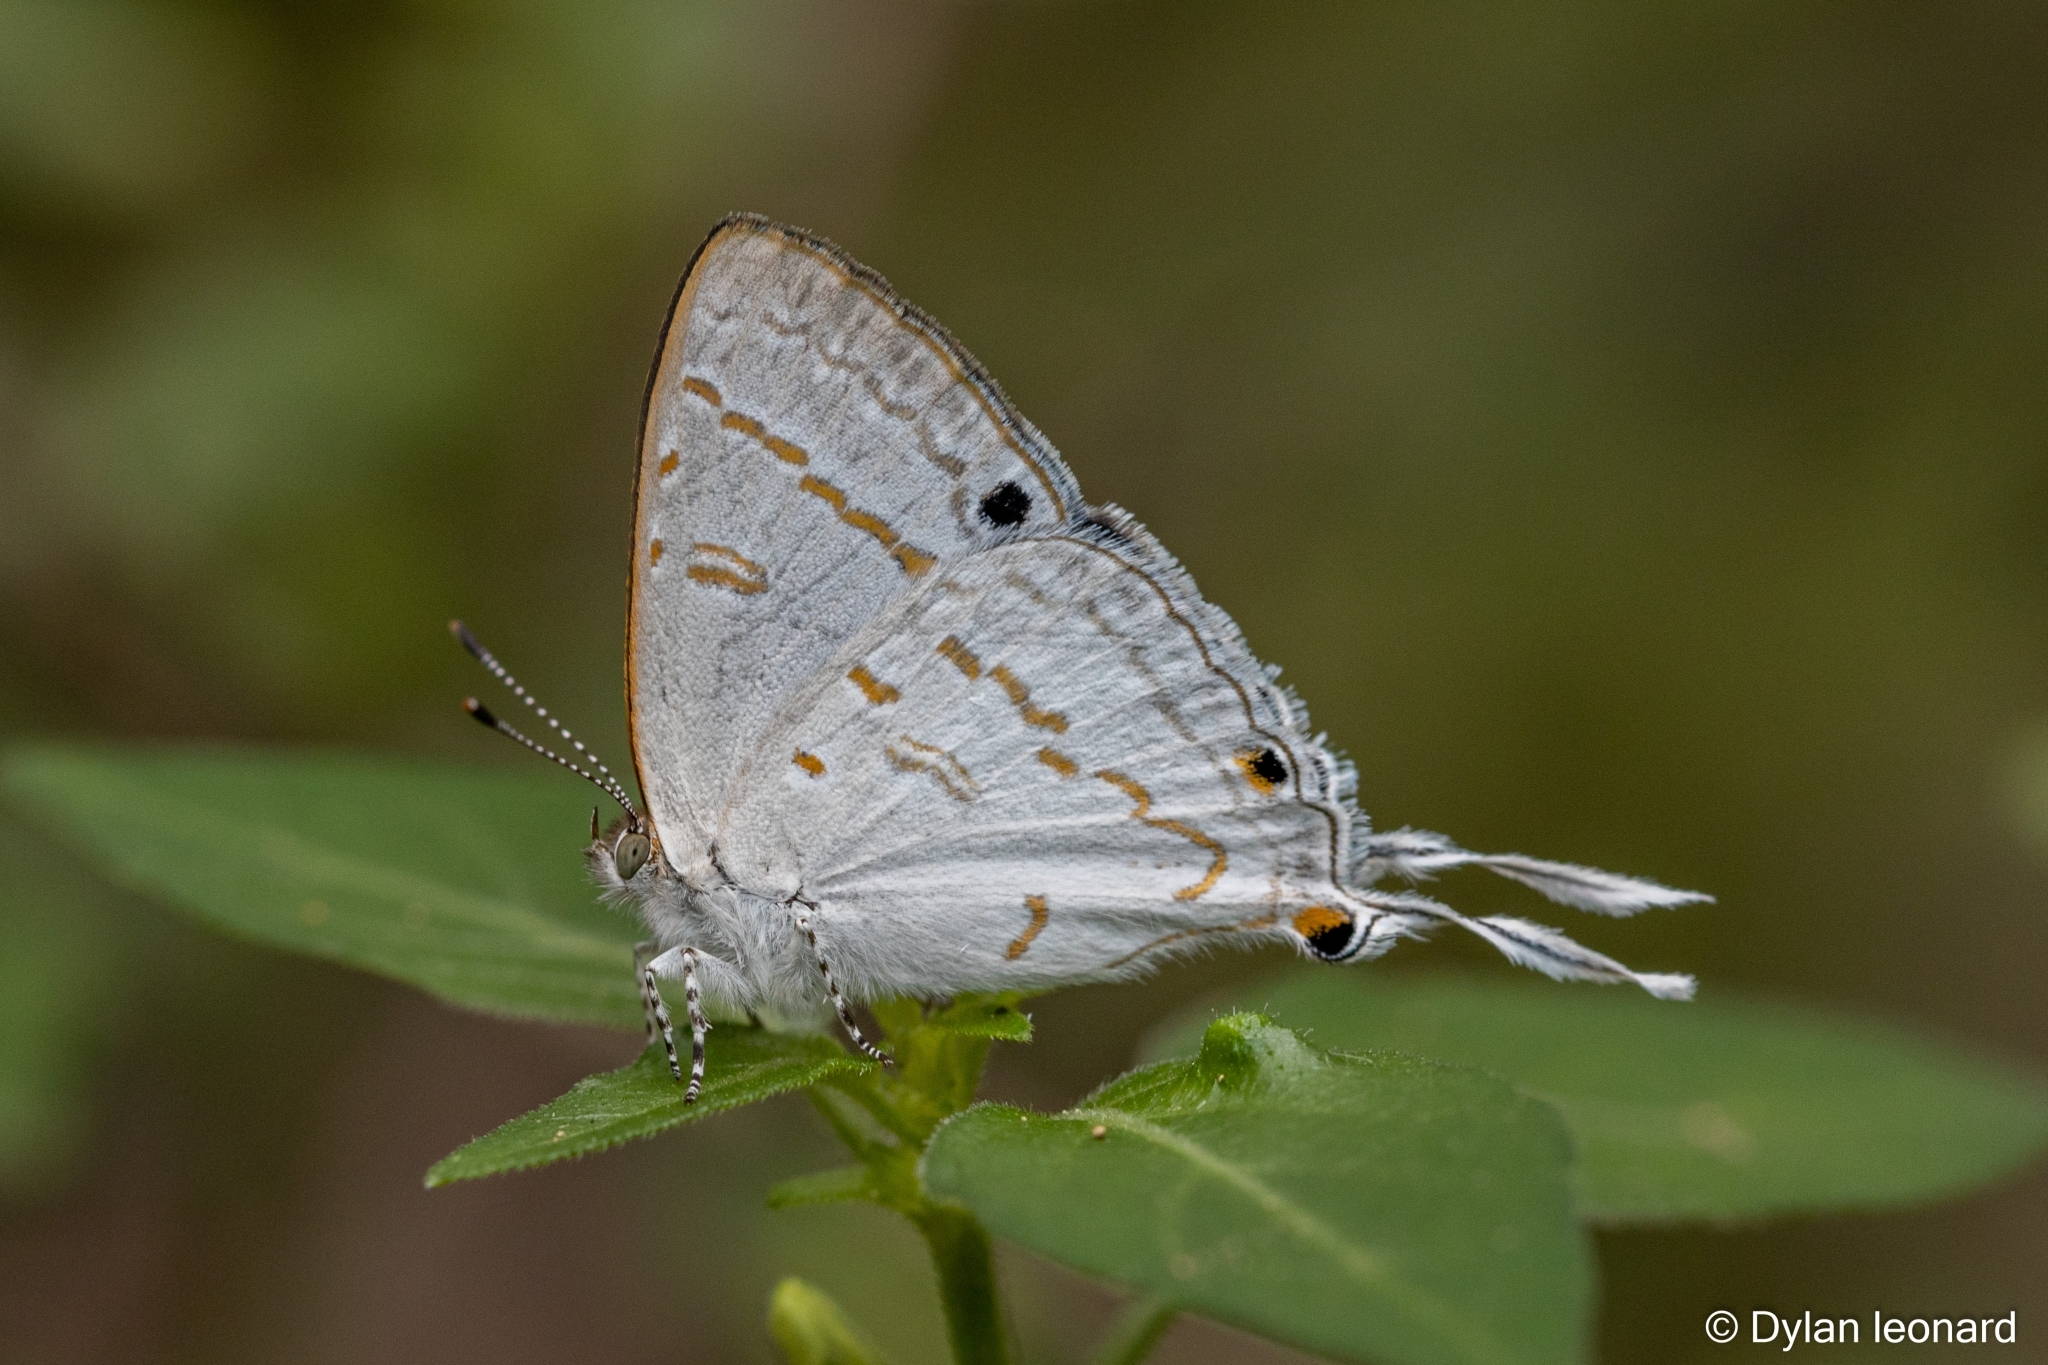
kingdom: Animalia
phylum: Arthropoda
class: Insecta
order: Lepidoptera
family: Lycaenidae
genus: Leptomyrina
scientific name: Leptomyrina hirundo
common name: Tailed black-eye
